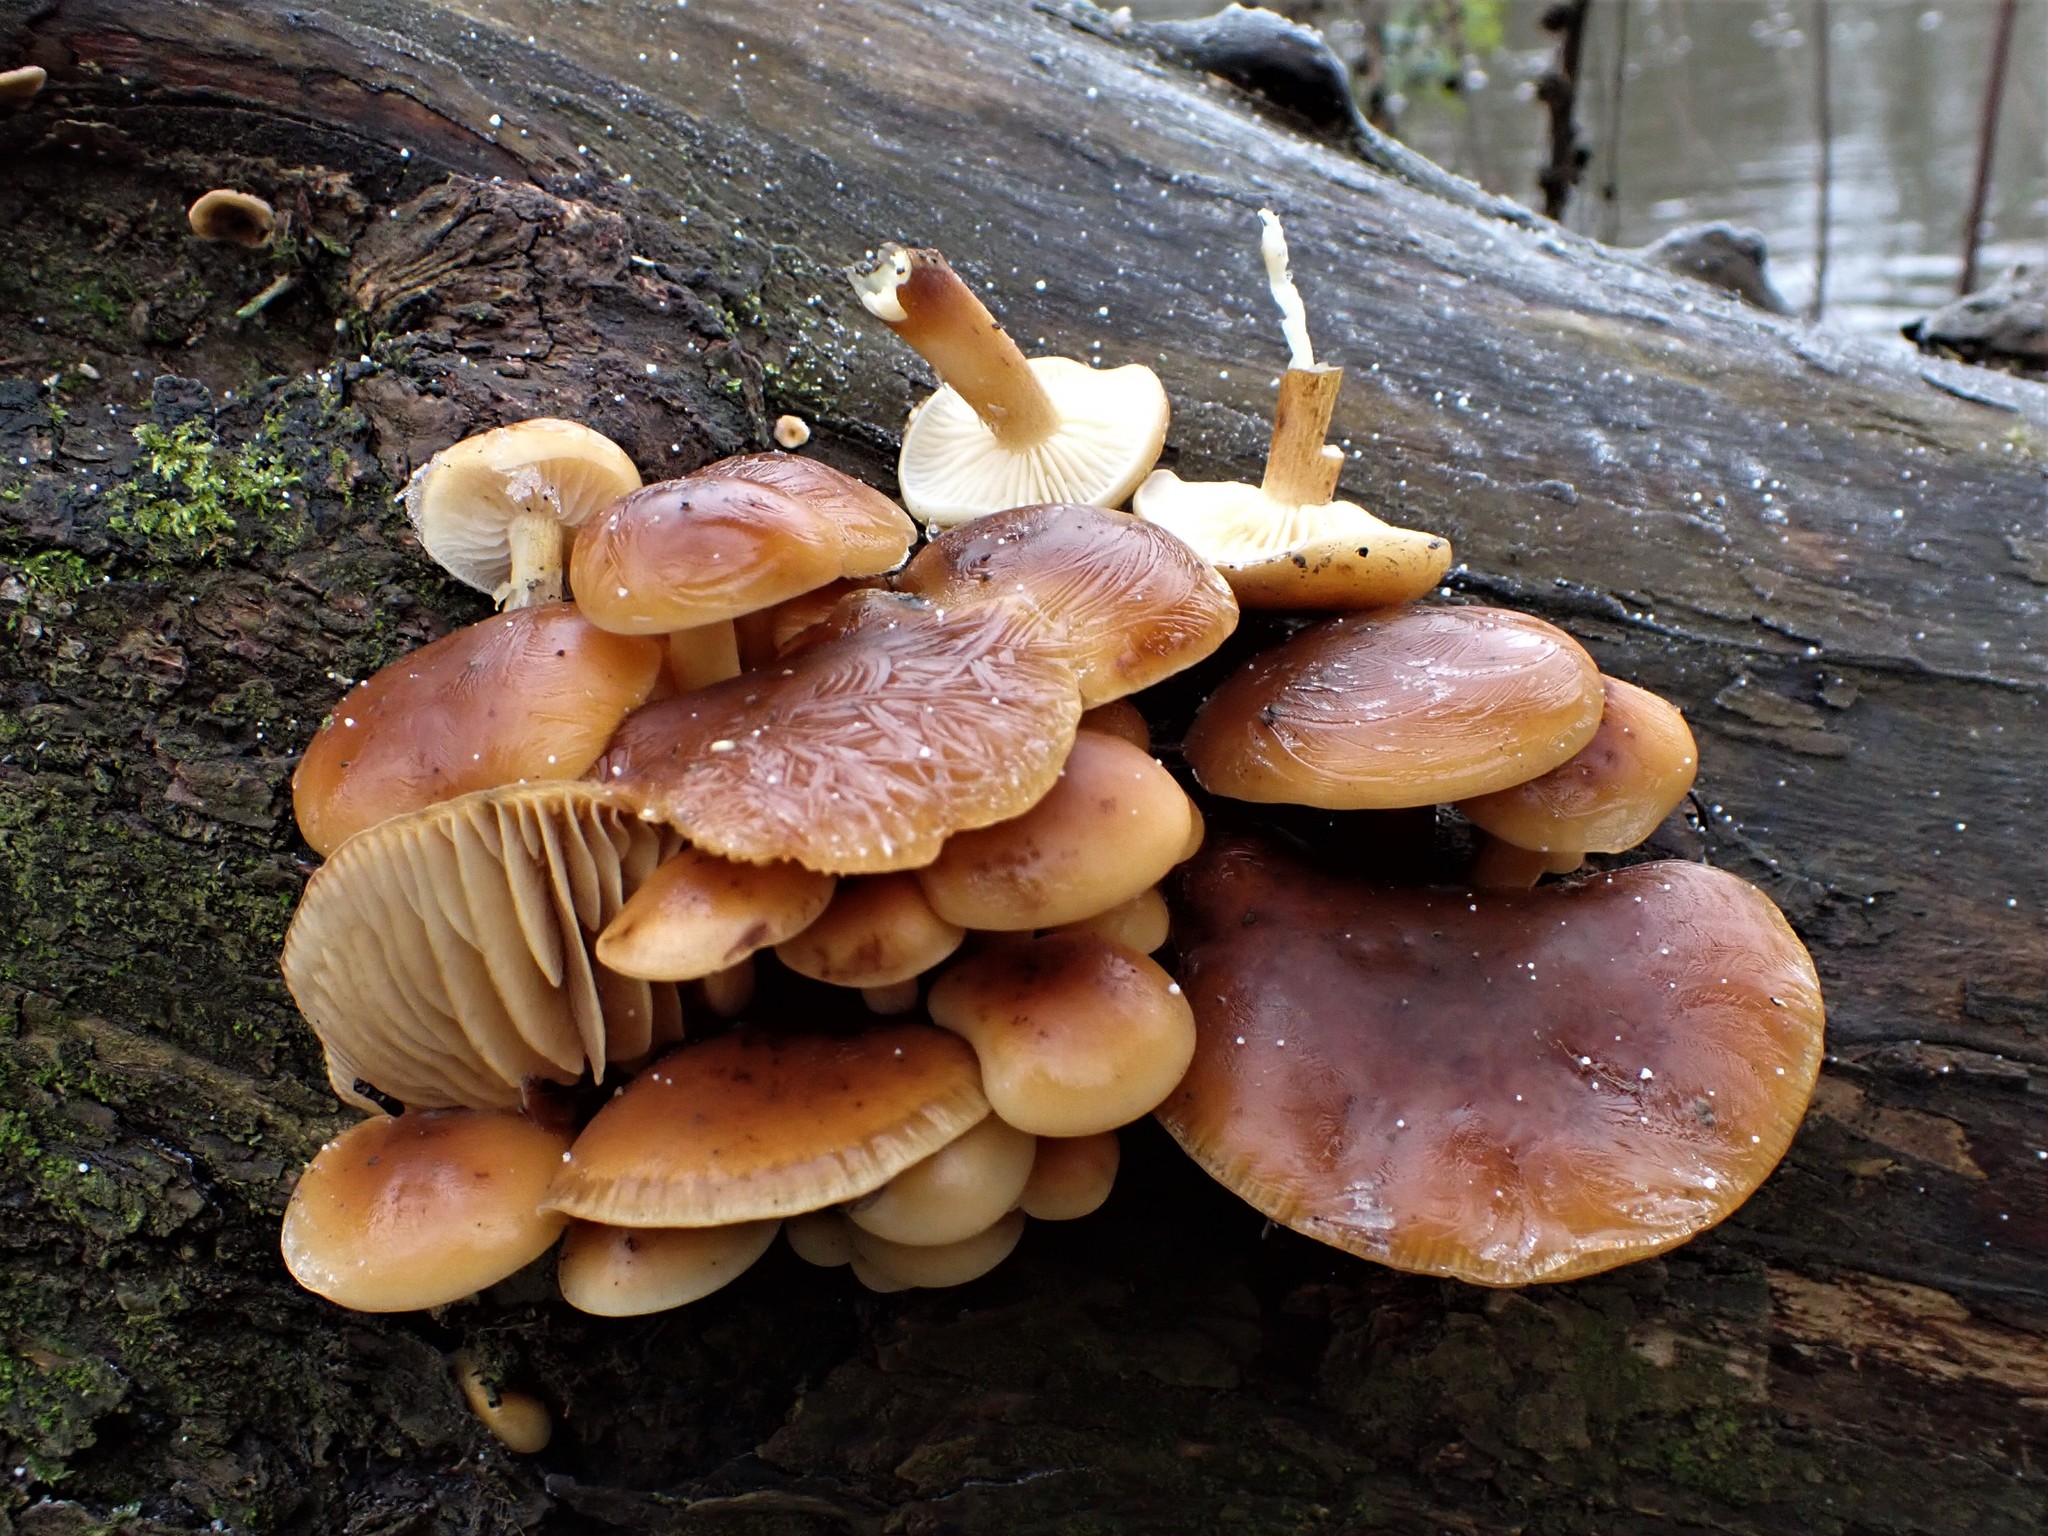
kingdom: Fungi
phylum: Basidiomycota
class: Agaricomycetes
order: Agaricales
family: Physalacriaceae
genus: Flammulina
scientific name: Flammulina
